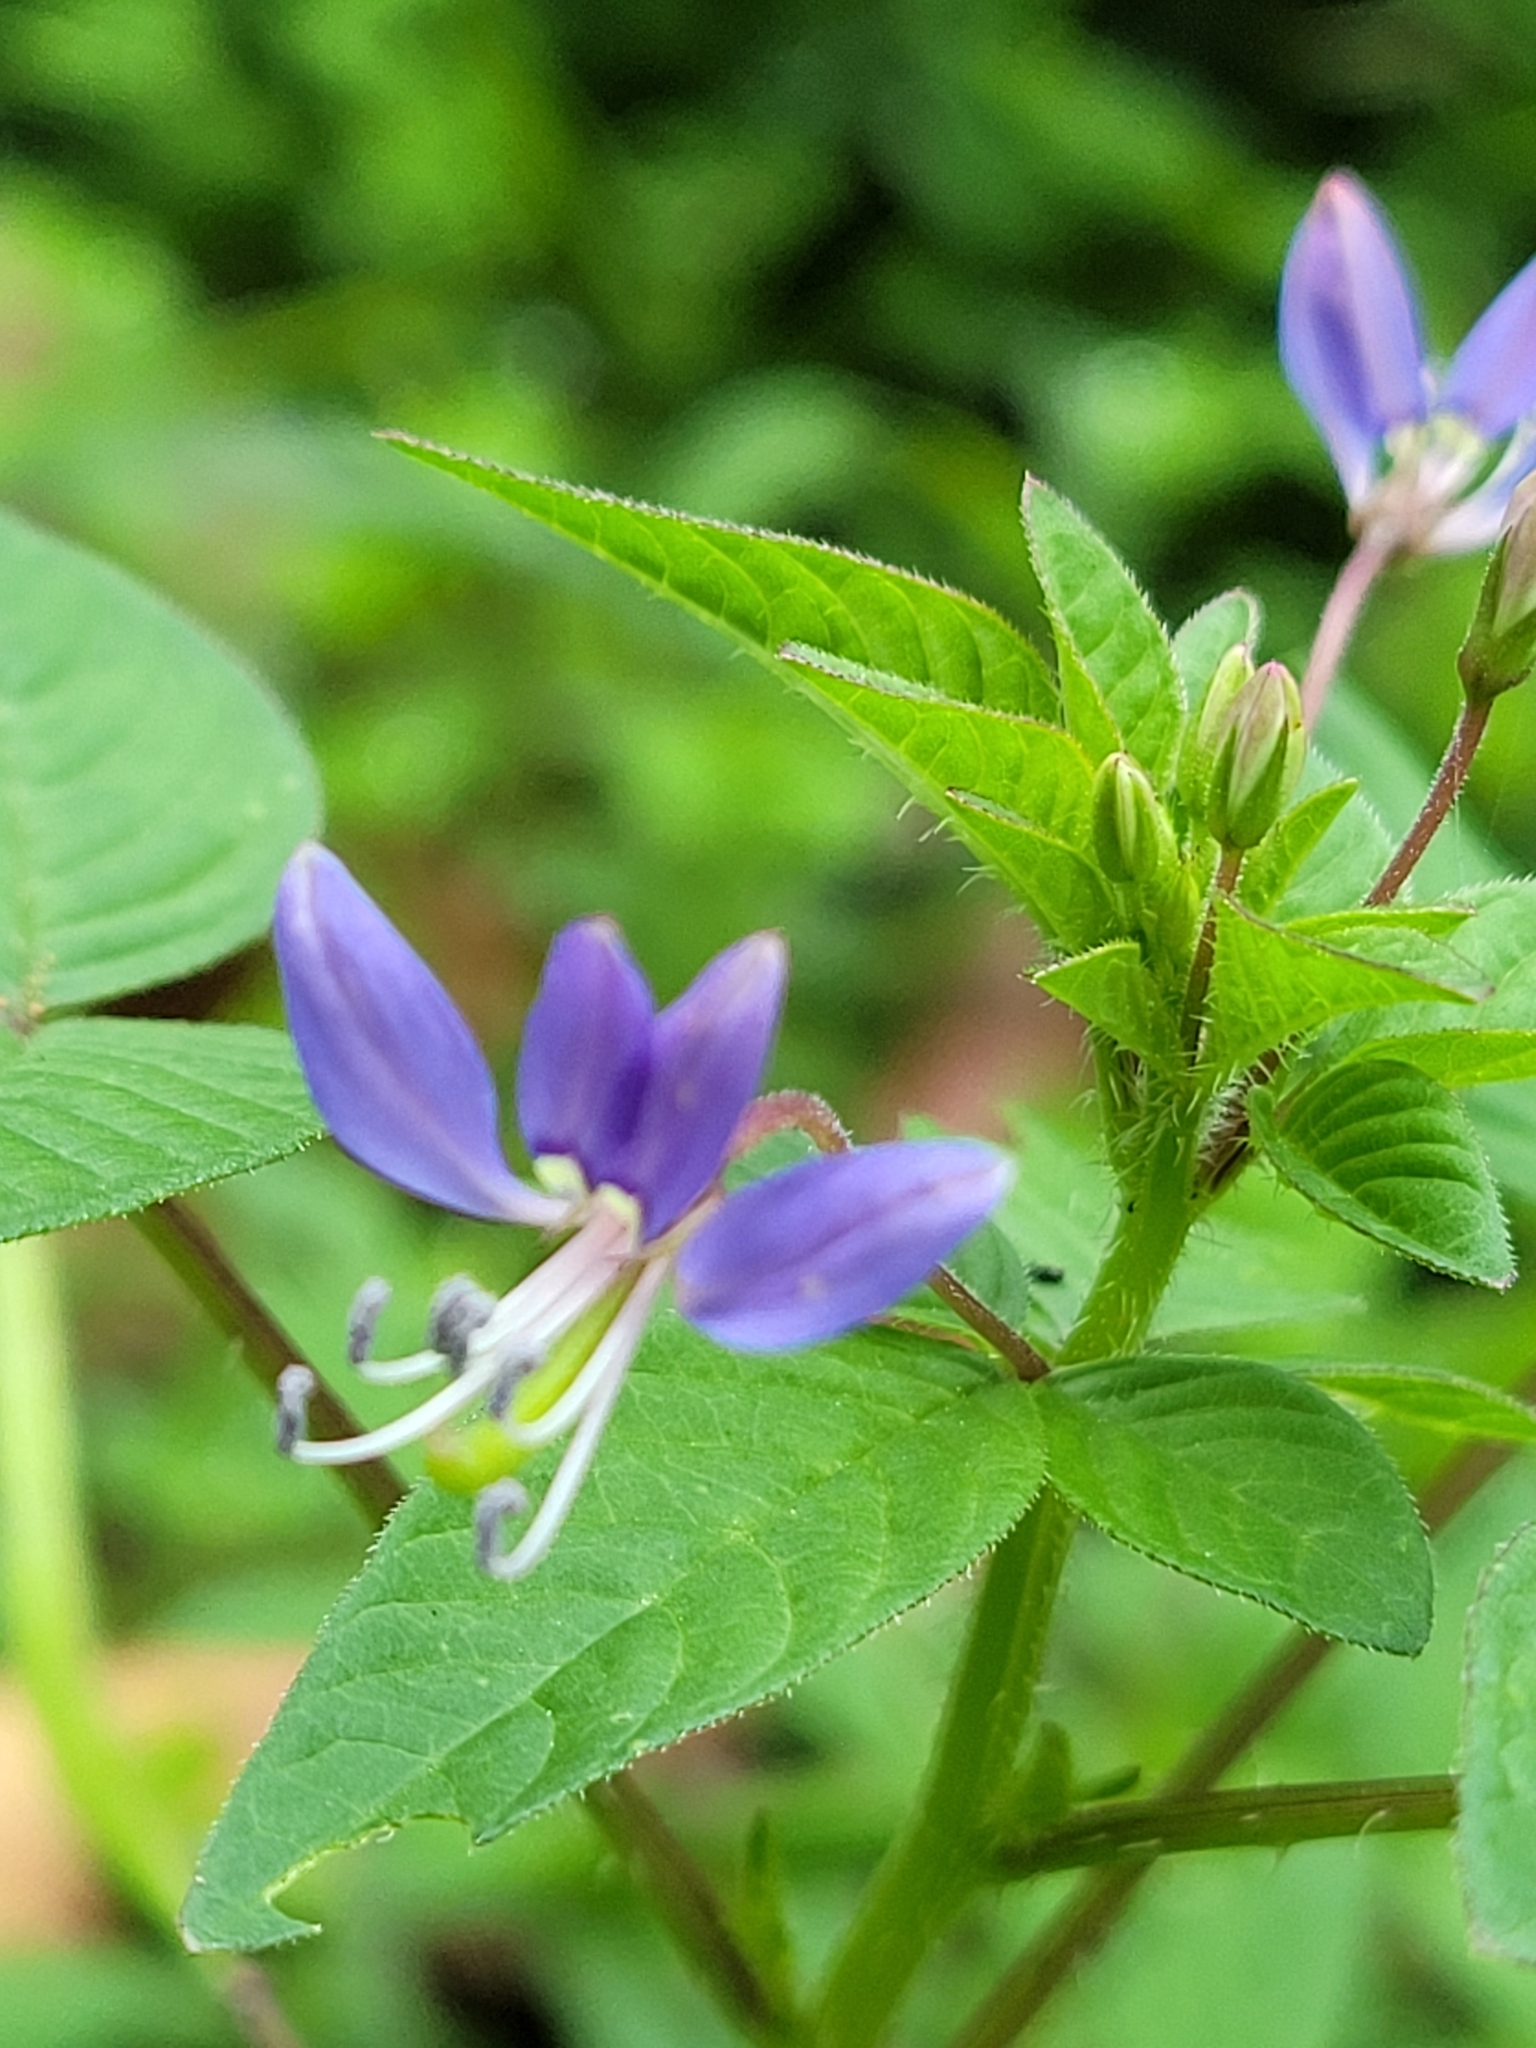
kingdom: Plantae
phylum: Tracheophyta
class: Magnoliopsida
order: Brassicales
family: Cleomaceae
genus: Sieruela
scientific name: Sieruela rutidosperma
